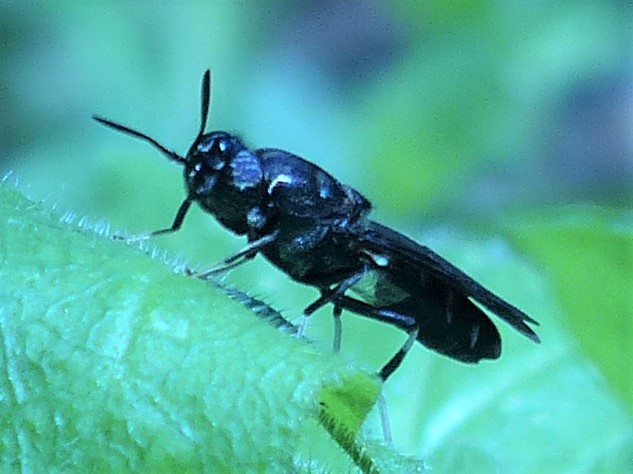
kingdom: Animalia
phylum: Arthropoda
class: Insecta
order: Diptera
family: Stratiomyidae
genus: Hermetia
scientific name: Hermetia illucens
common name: Black soldier fly
